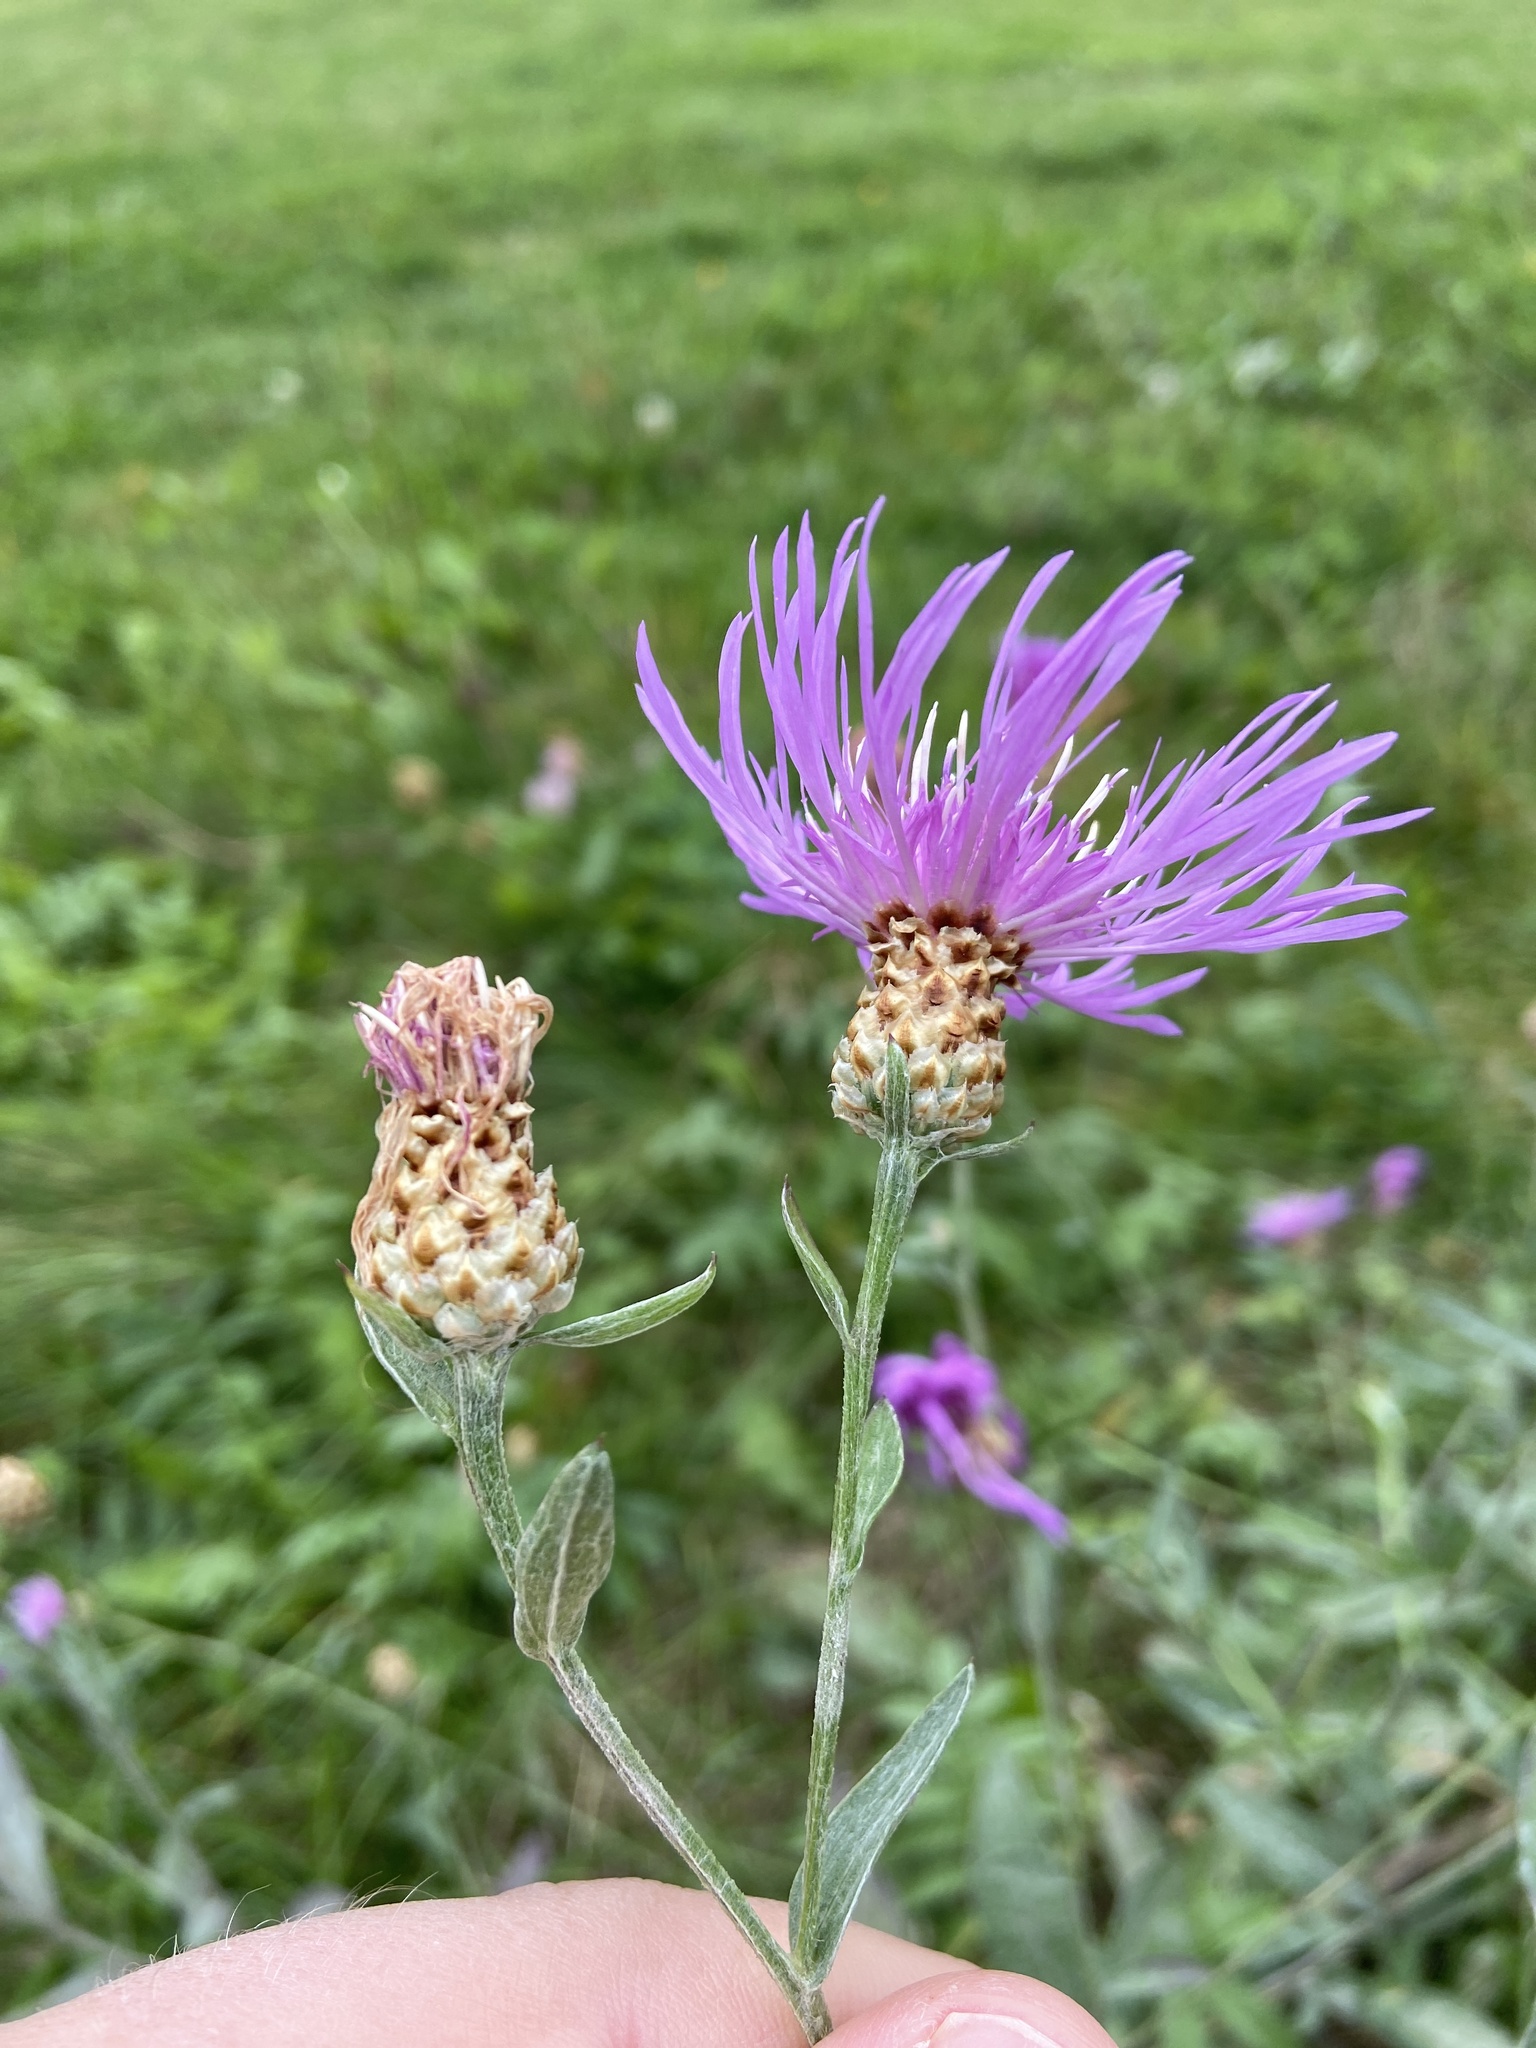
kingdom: Plantae
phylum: Tracheophyta
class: Magnoliopsida
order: Asterales
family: Asteraceae
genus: Centaurea
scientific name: Centaurea jacea
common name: Brown knapweed
